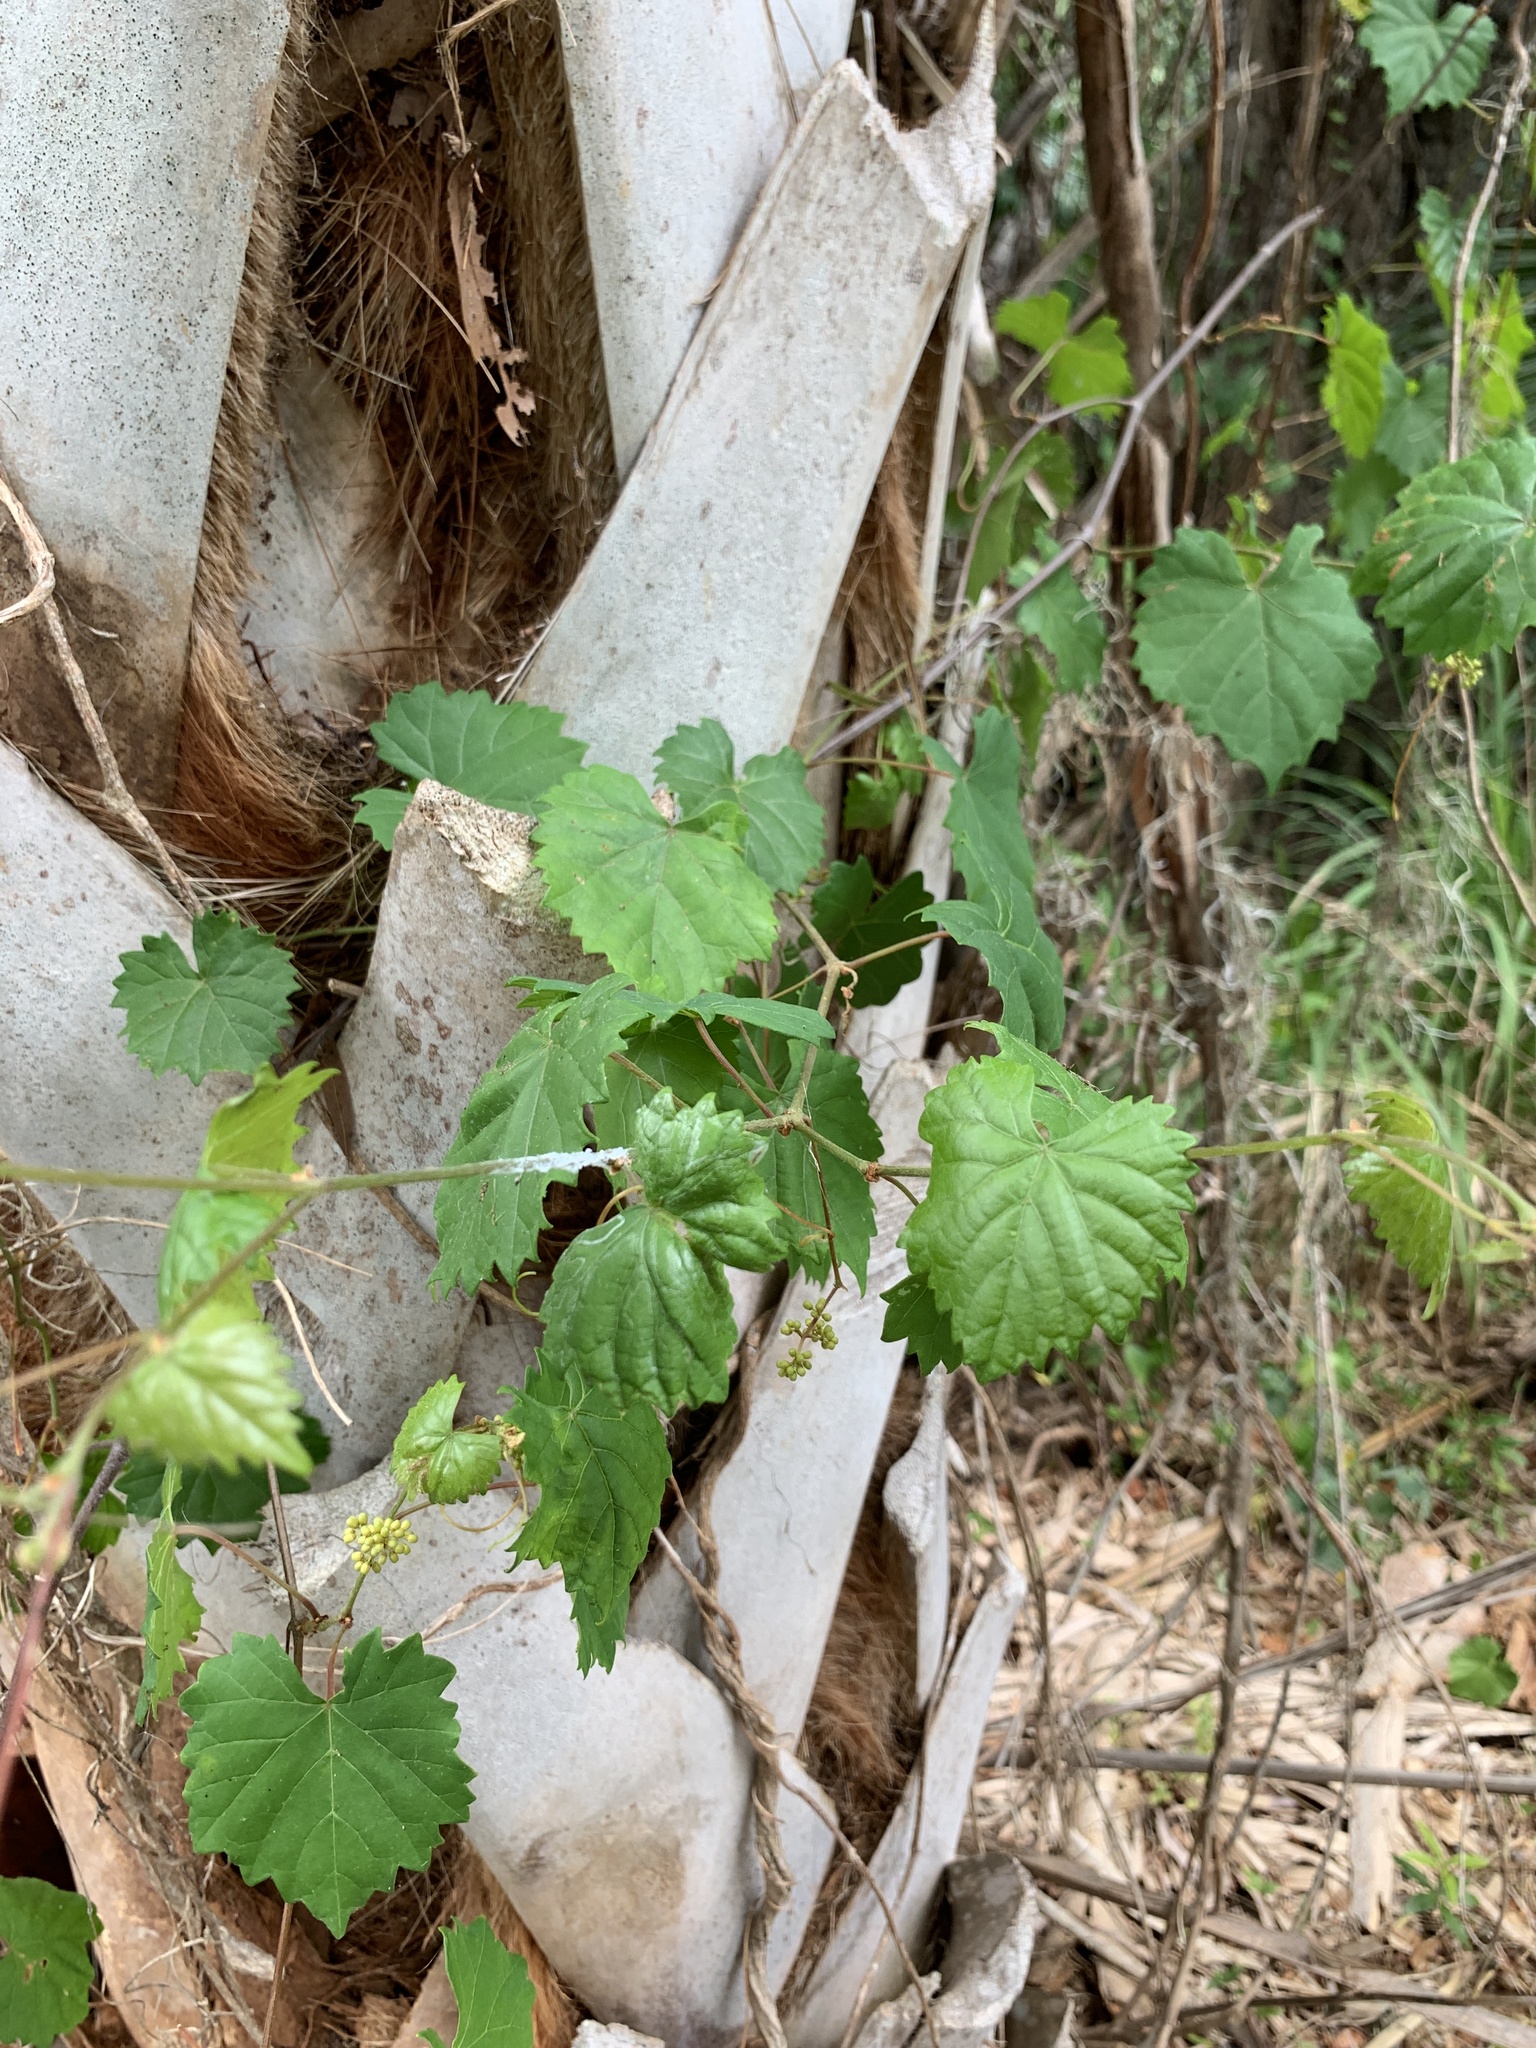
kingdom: Plantae
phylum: Tracheophyta
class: Magnoliopsida
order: Vitales
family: Vitaceae
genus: Vitis
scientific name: Vitis rotundifolia
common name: Muscadine grape
